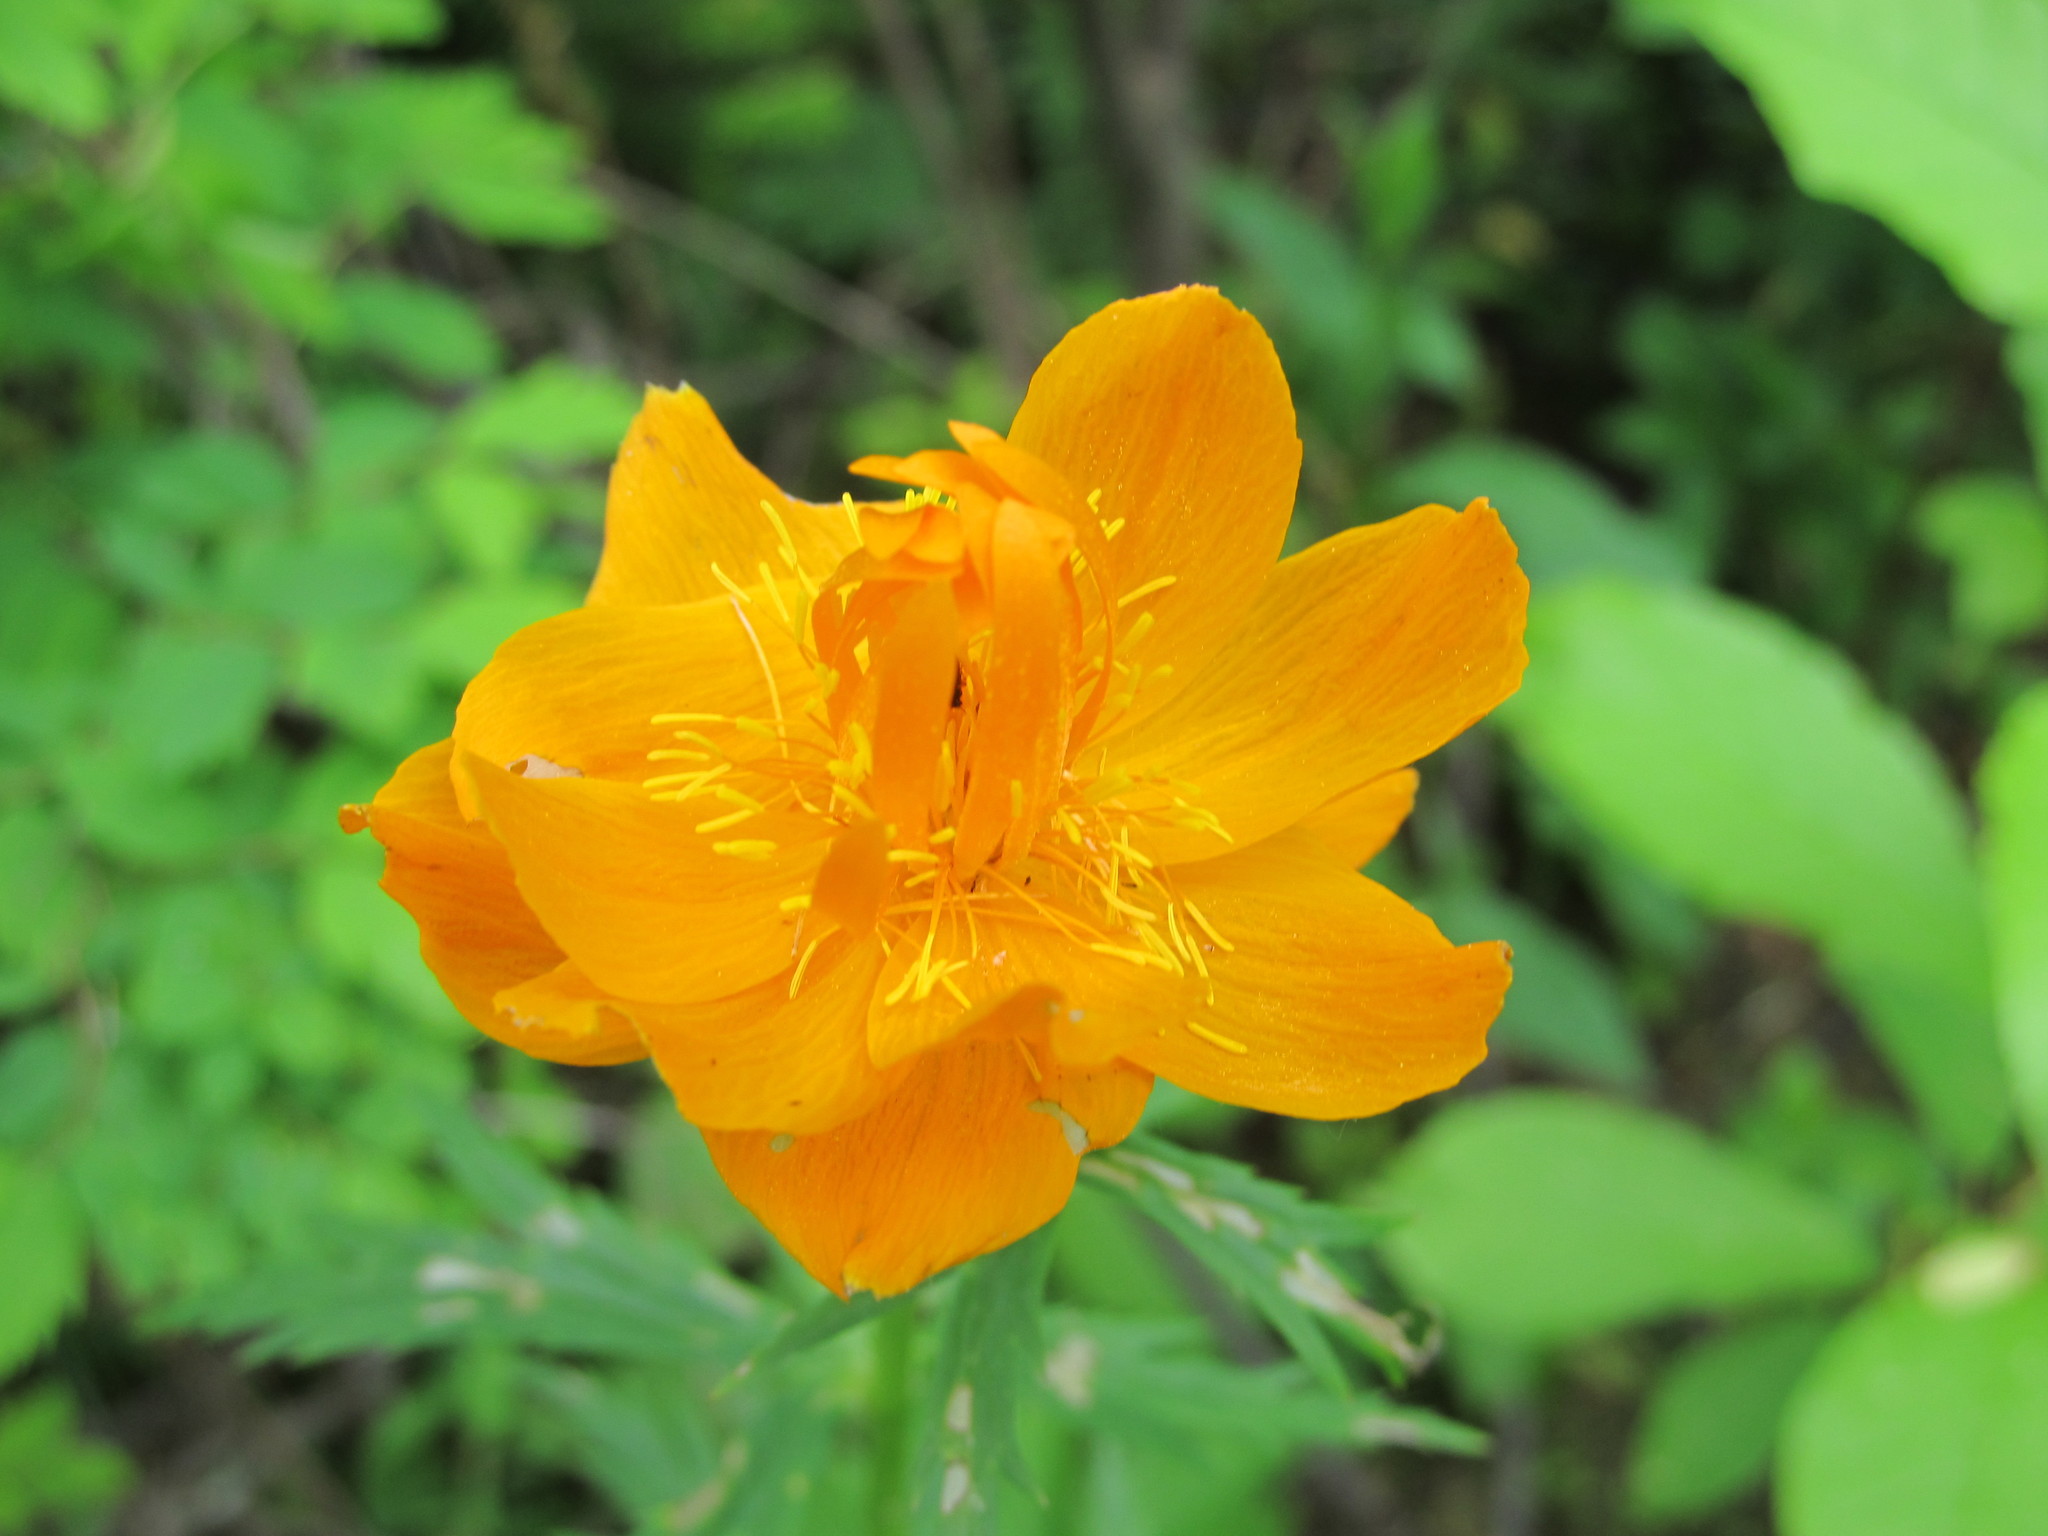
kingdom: Plantae
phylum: Tracheophyta
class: Magnoliopsida
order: Ranunculales
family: Ranunculaceae
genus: Trollius
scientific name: Trollius asiaticus
